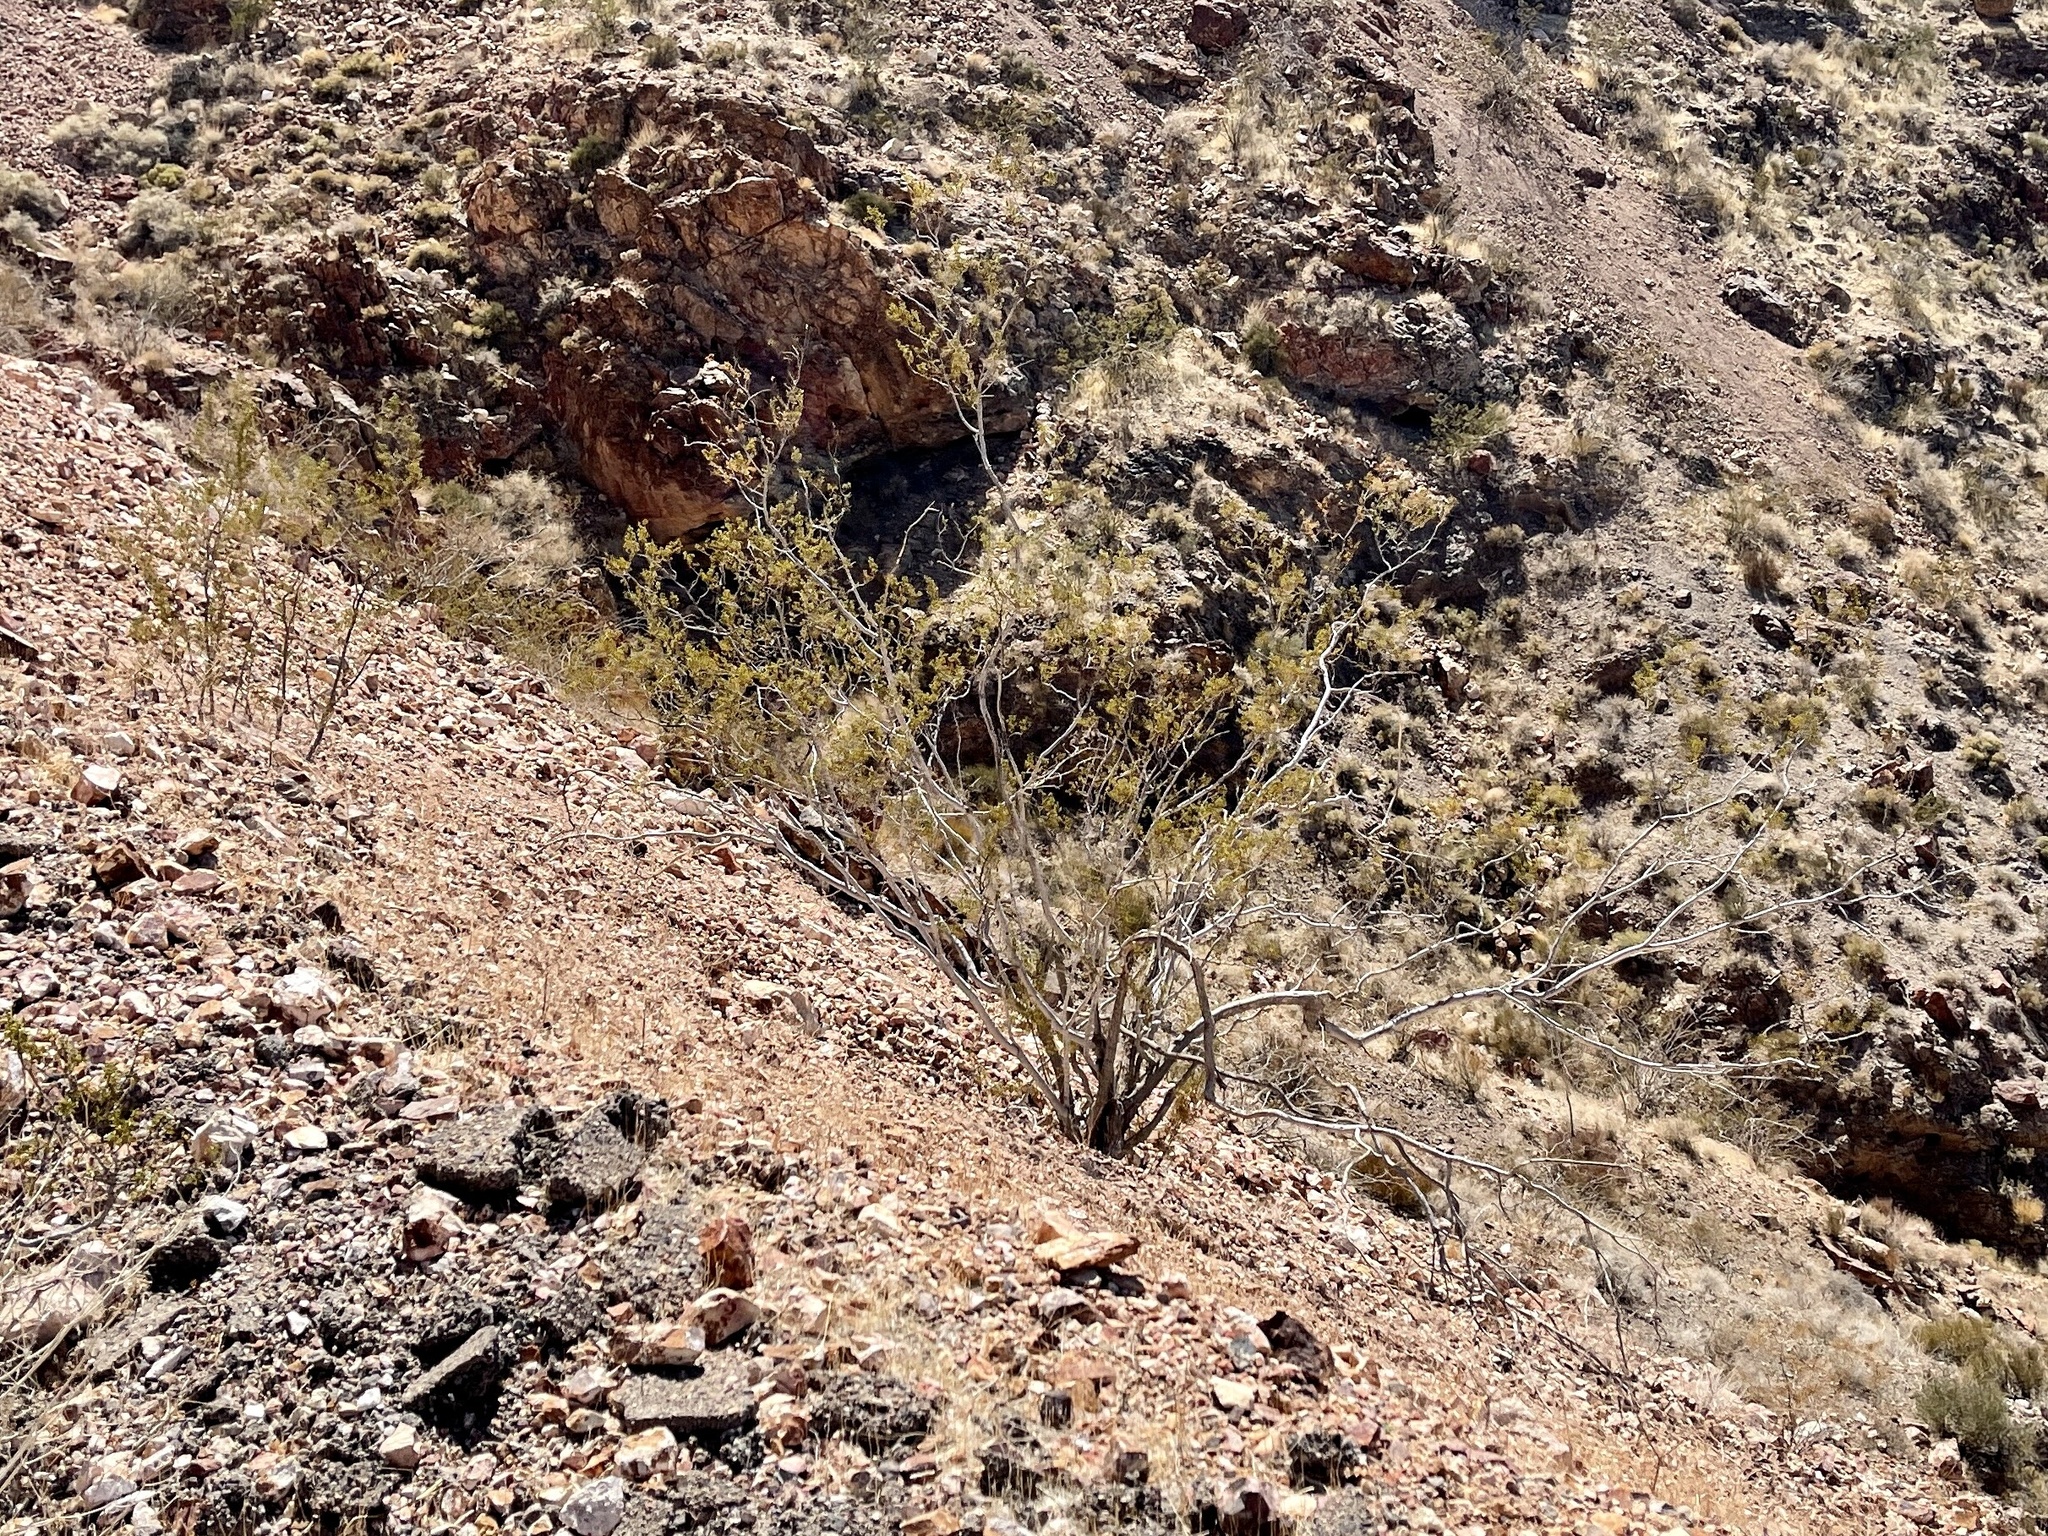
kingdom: Plantae
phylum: Tracheophyta
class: Magnoliopsida
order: Zygophyllales
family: Zygophyllaceae
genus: Larrea
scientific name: Larrea tridentata
